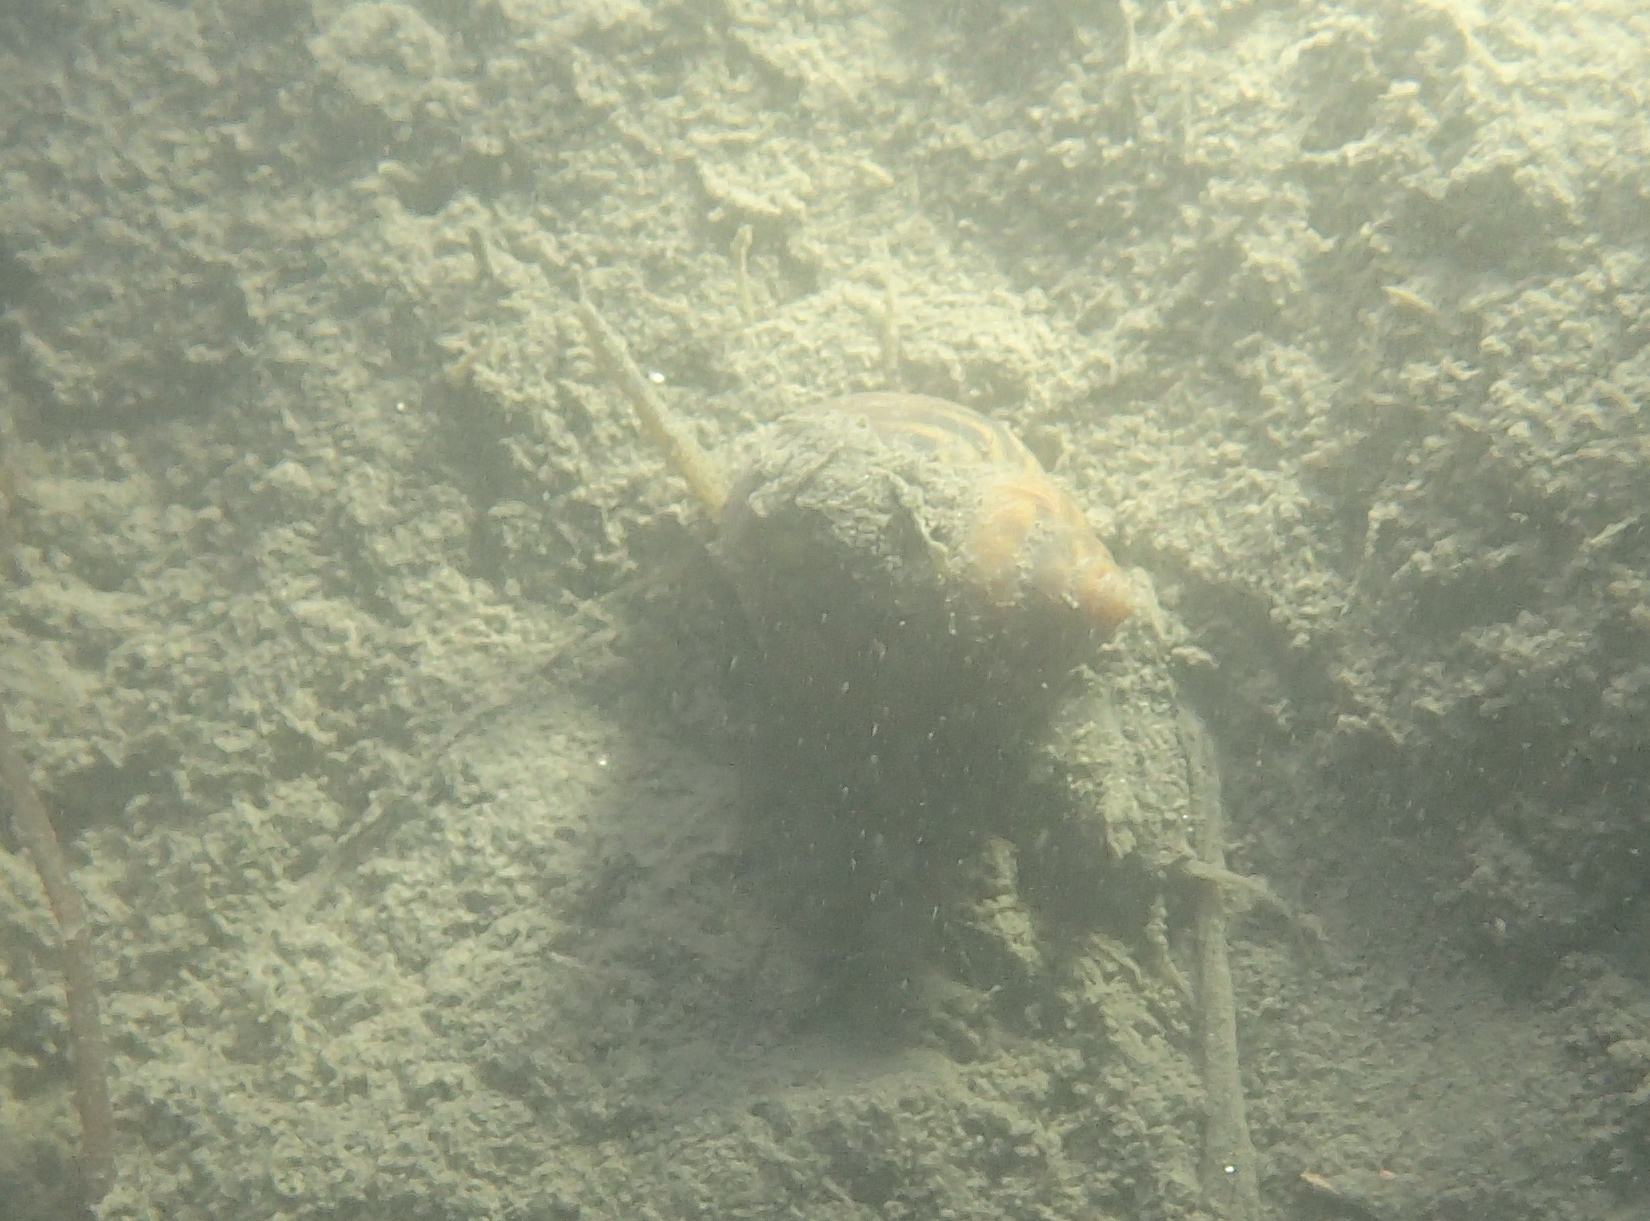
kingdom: Animalia
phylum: Mollusca
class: Gastropoda
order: Neogastropoda
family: Nassariidae
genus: Tritia
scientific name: Tritia mutabilis
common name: Mutable nassa
